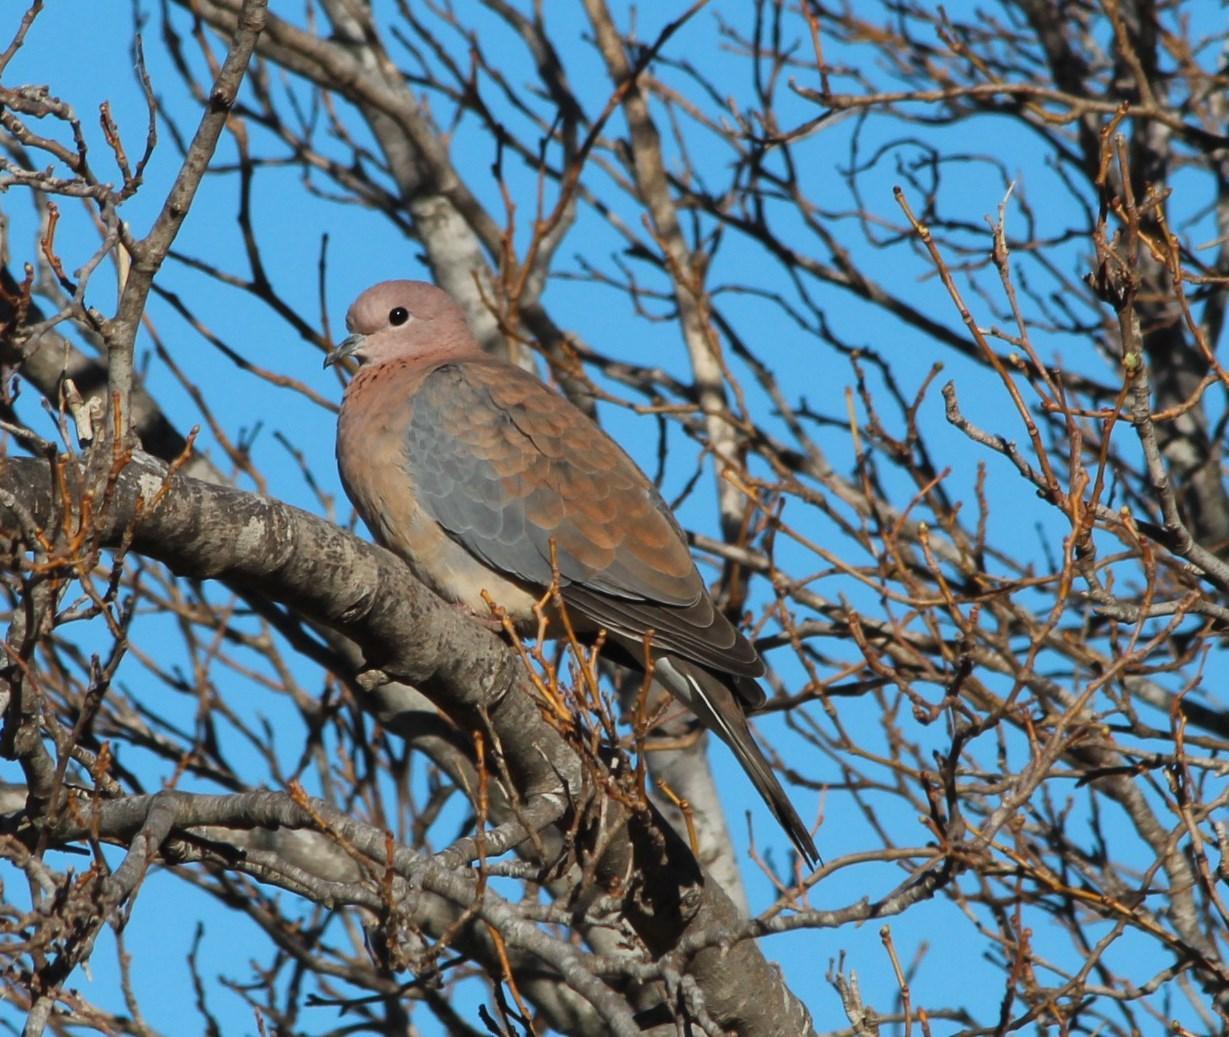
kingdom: Animalia
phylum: Chordata
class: Aves
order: Columbiformes
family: Columbidae
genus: Spilopelia
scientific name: Spilopelia senegalensis
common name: Laughing dove
